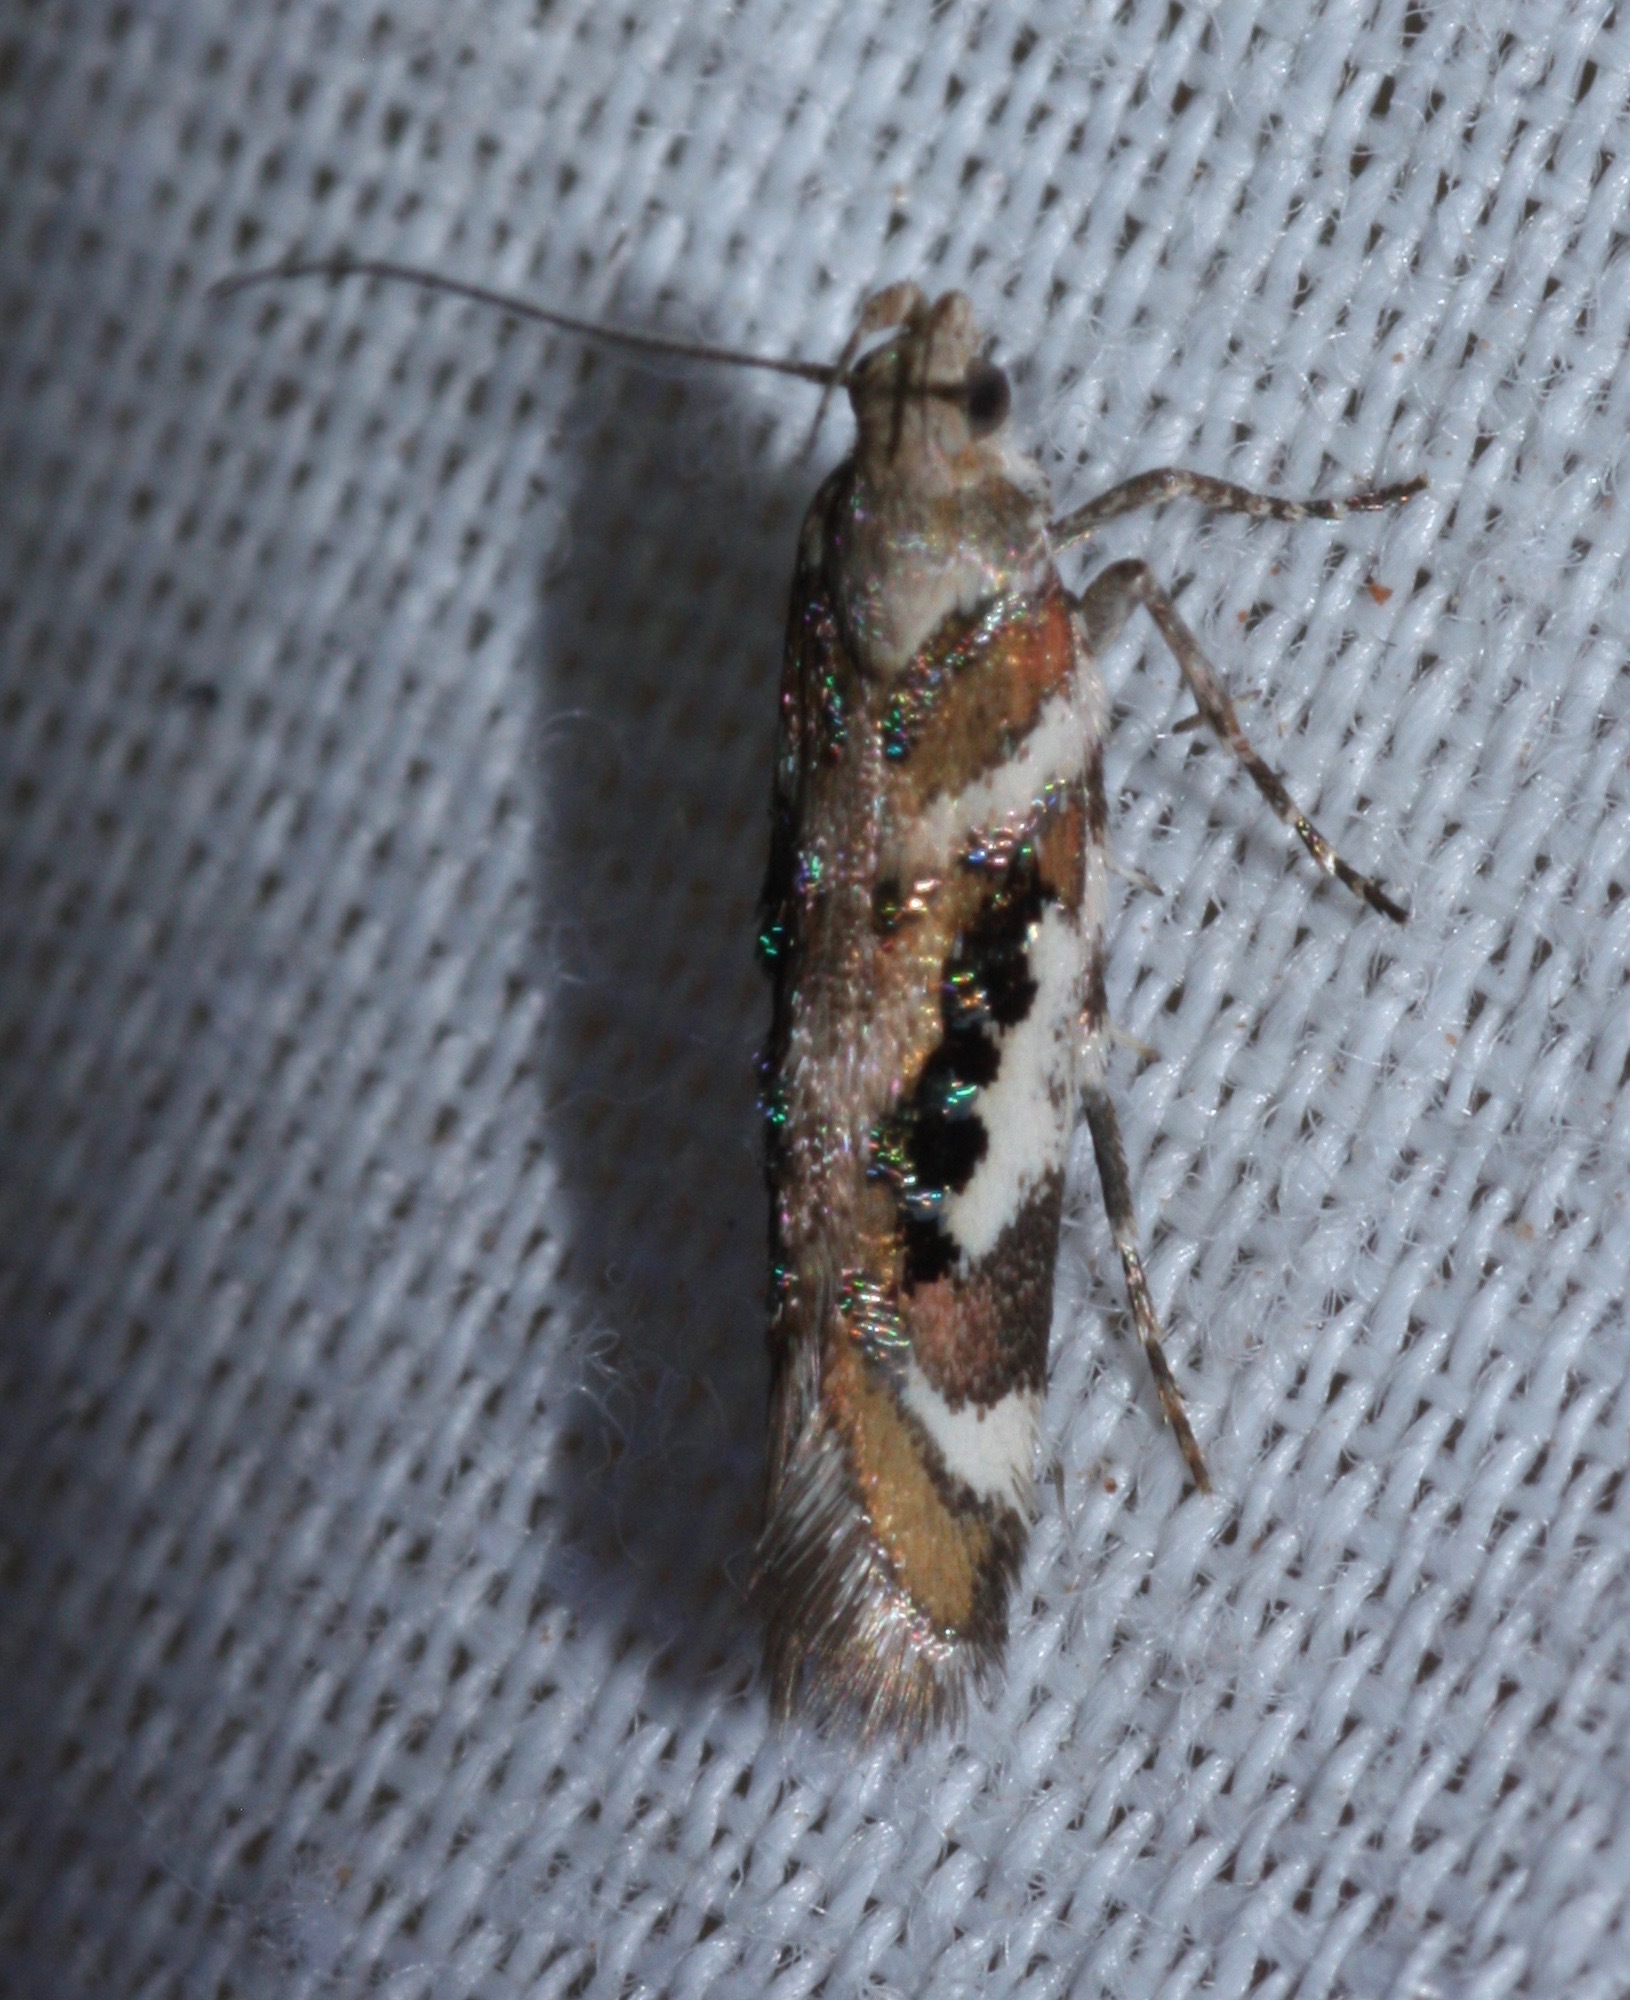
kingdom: Animalia
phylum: Arthropoda
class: Insecta
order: Lepidoptera
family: Gelechiidae
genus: Aristotelia
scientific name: Aristotelia elegantella
